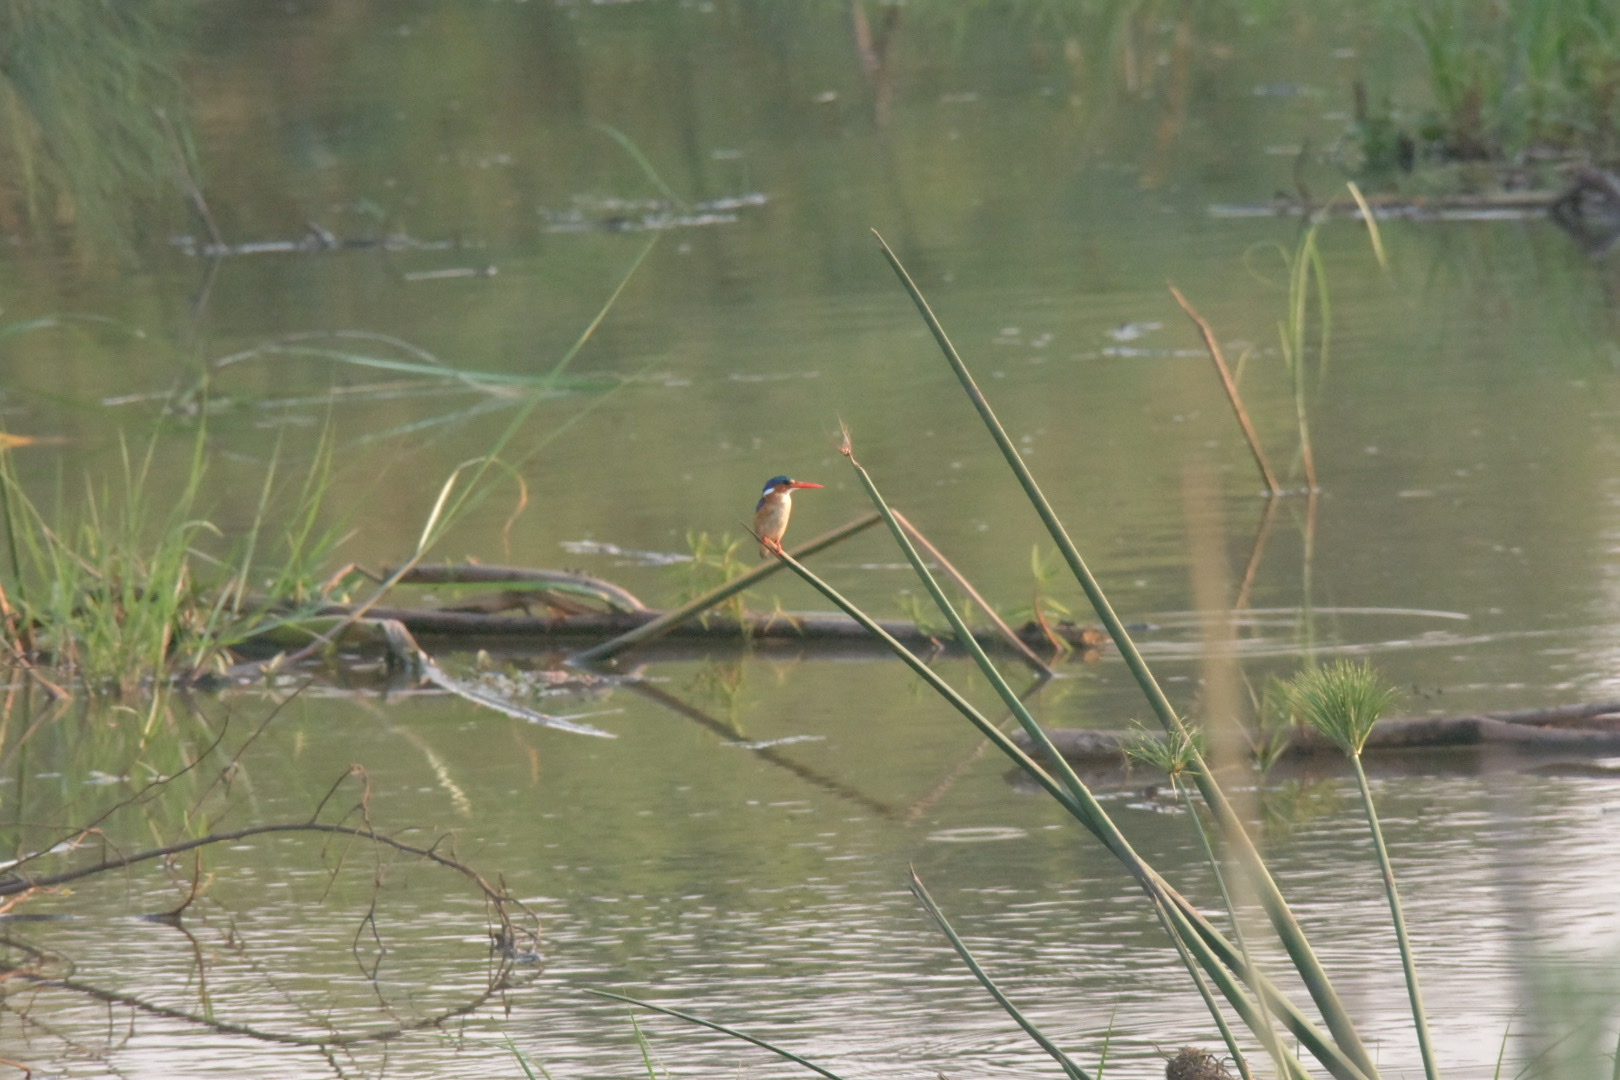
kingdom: Animalia
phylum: Chordata
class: Aves
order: Coraciiformes
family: Alcedinidae
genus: Corythornis
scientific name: Corythornis cristatus
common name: Malachite kingfisher
